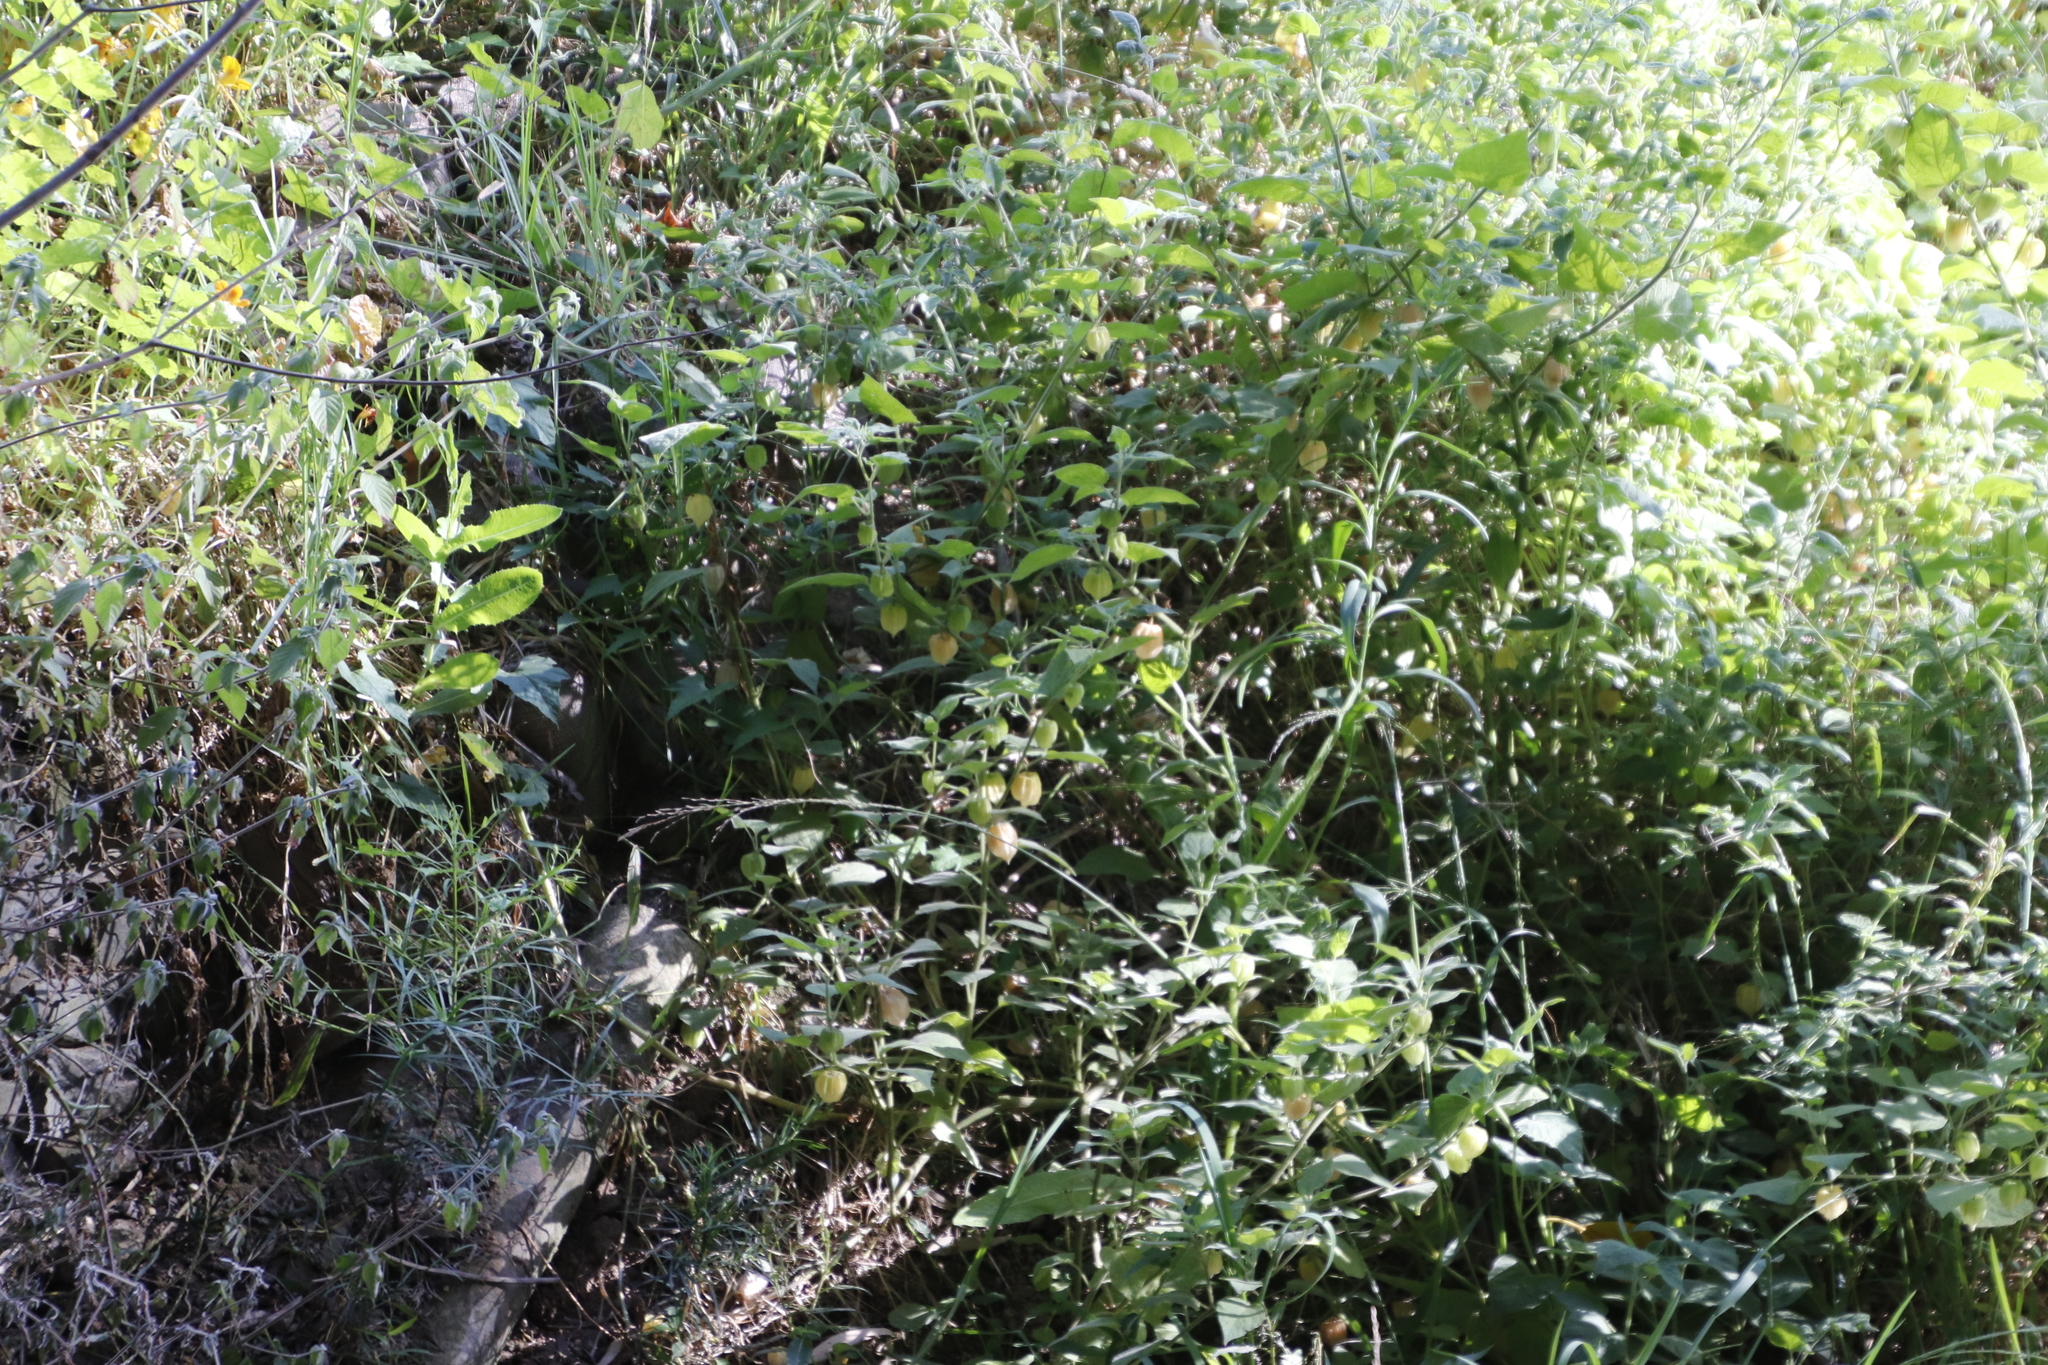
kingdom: Plantae
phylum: Tracheophyta
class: Magnoliopsida
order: Solanales
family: Solanaceae
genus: Physalis
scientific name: Physalis peruviana
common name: Cape-gooseberry
